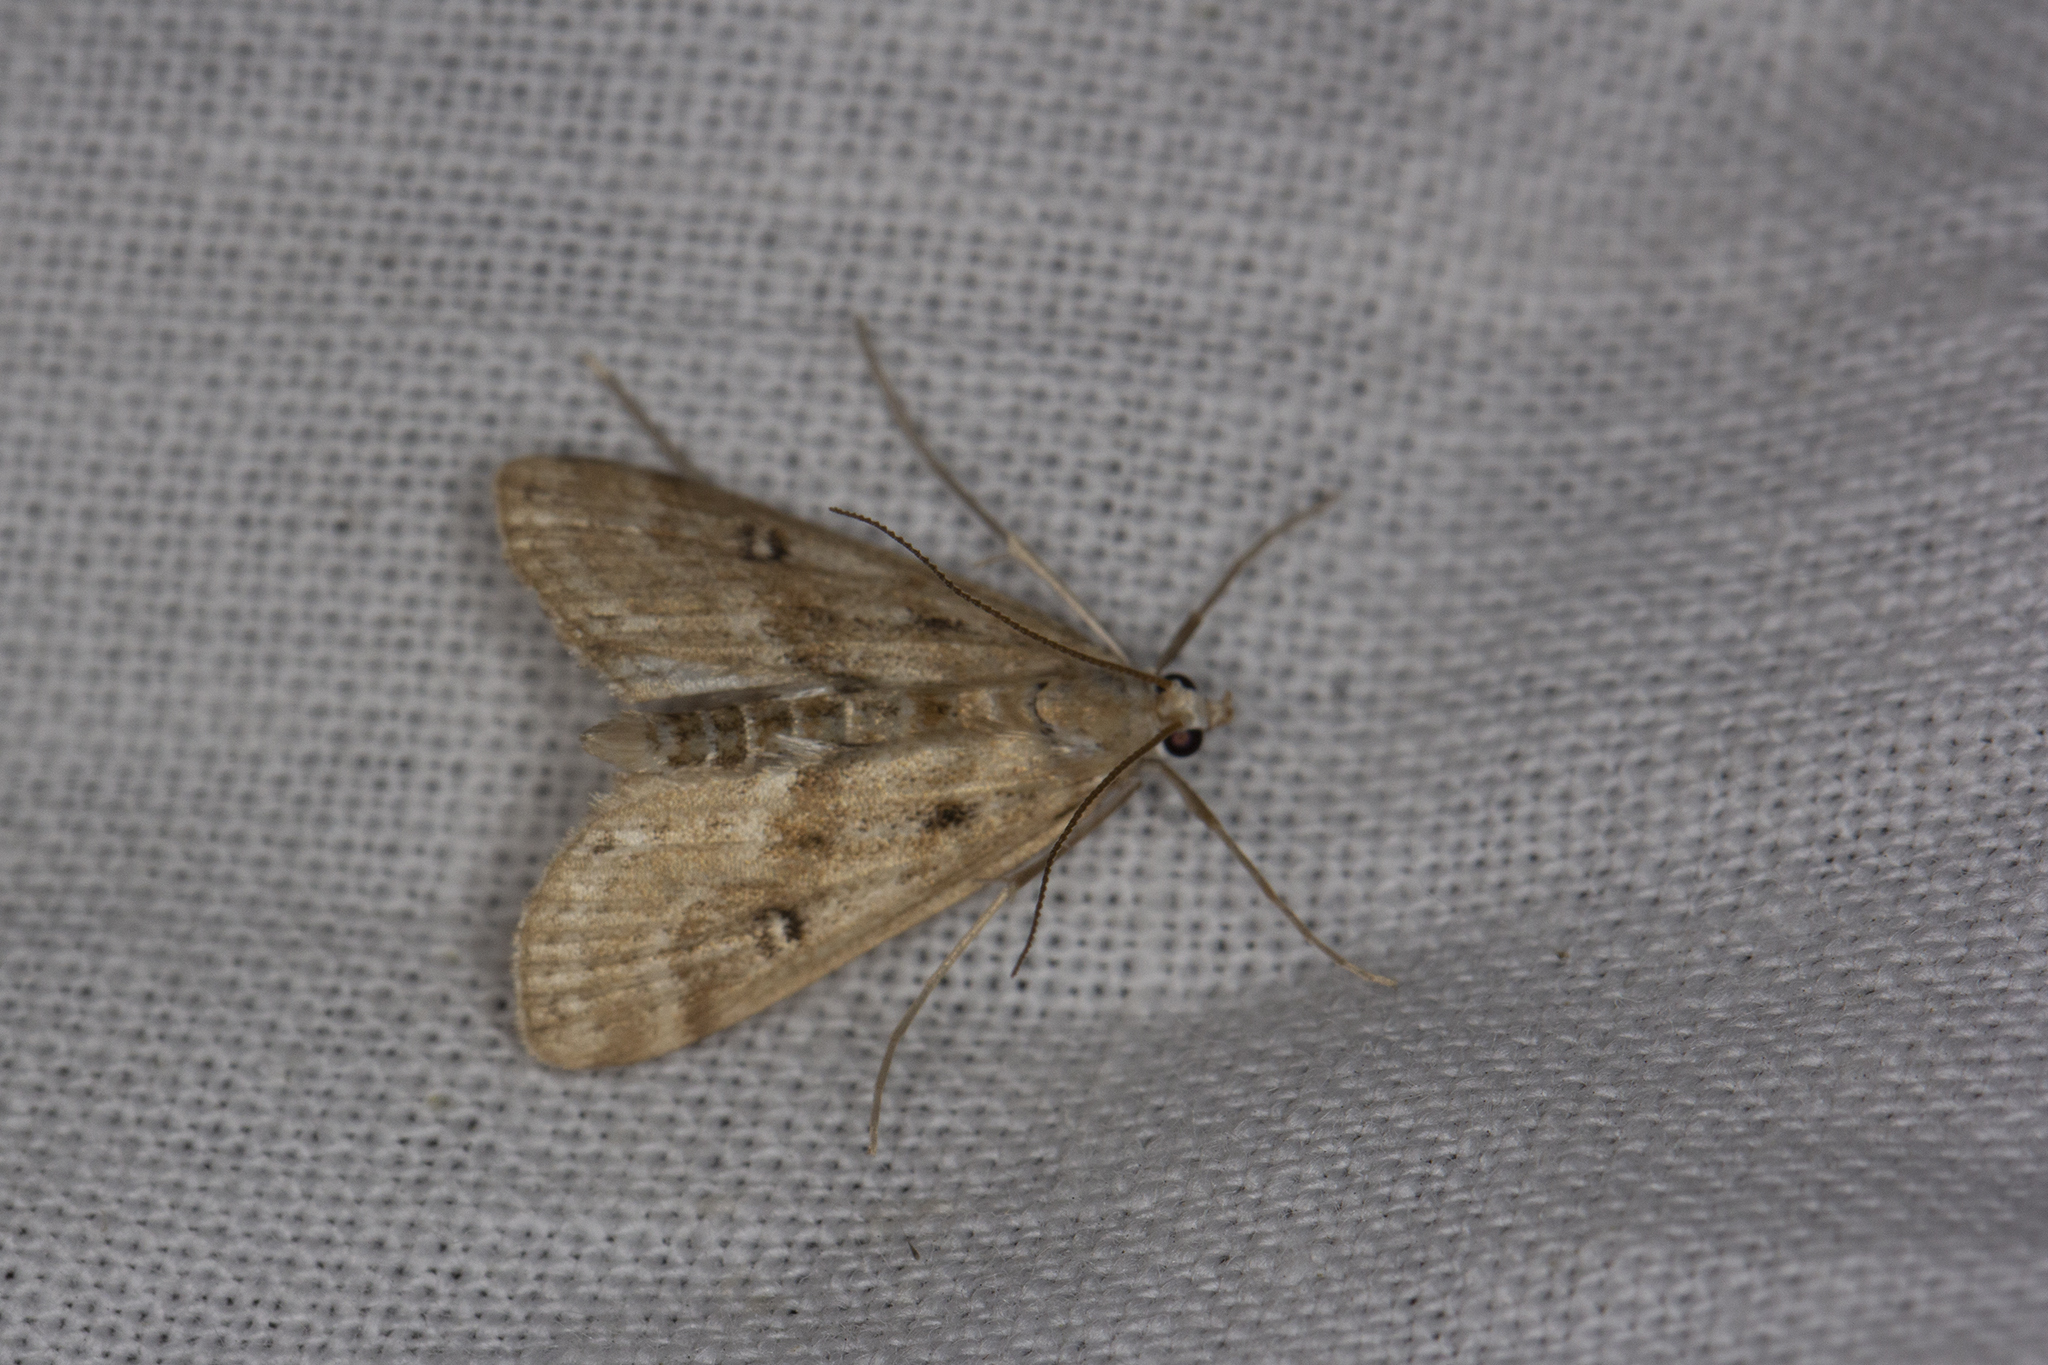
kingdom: Animalia
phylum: Arthropoda
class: Insecta
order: Lepidoptera
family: Crambidae
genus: Parapoynx
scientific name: Parapoynx stratiotata
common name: Ringed china-mark
